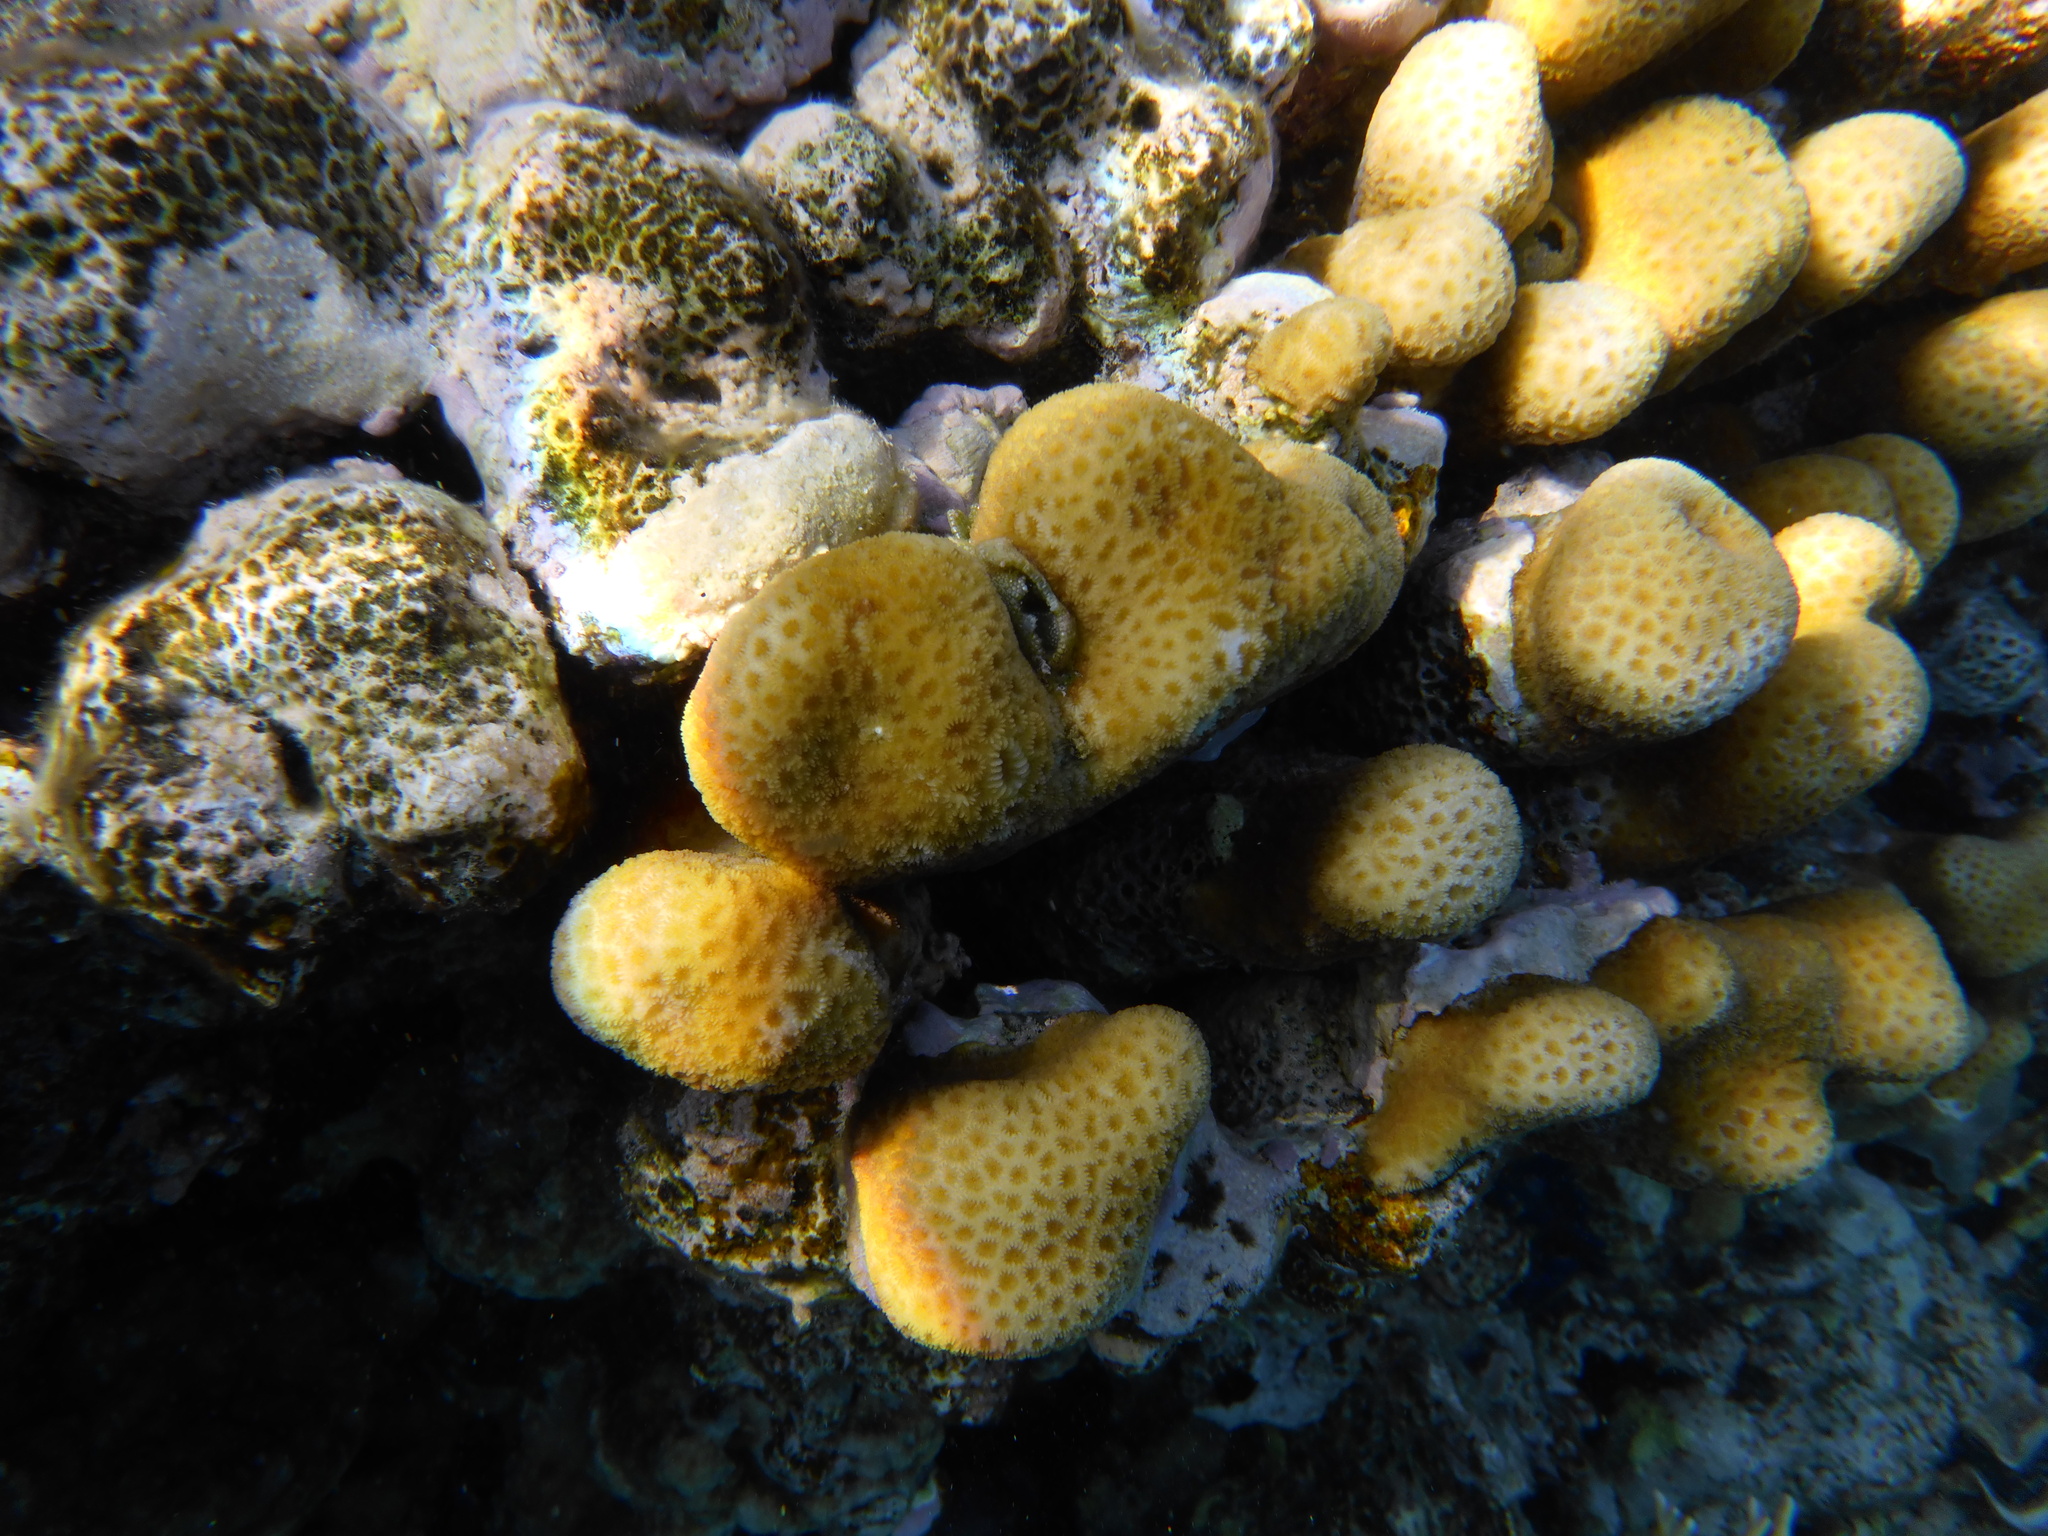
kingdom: Animalia
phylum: Cnidaria
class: Anthozoa
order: Scleractinia
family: Merulinidae
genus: Goniastrea
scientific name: Goniastrea stelligera
